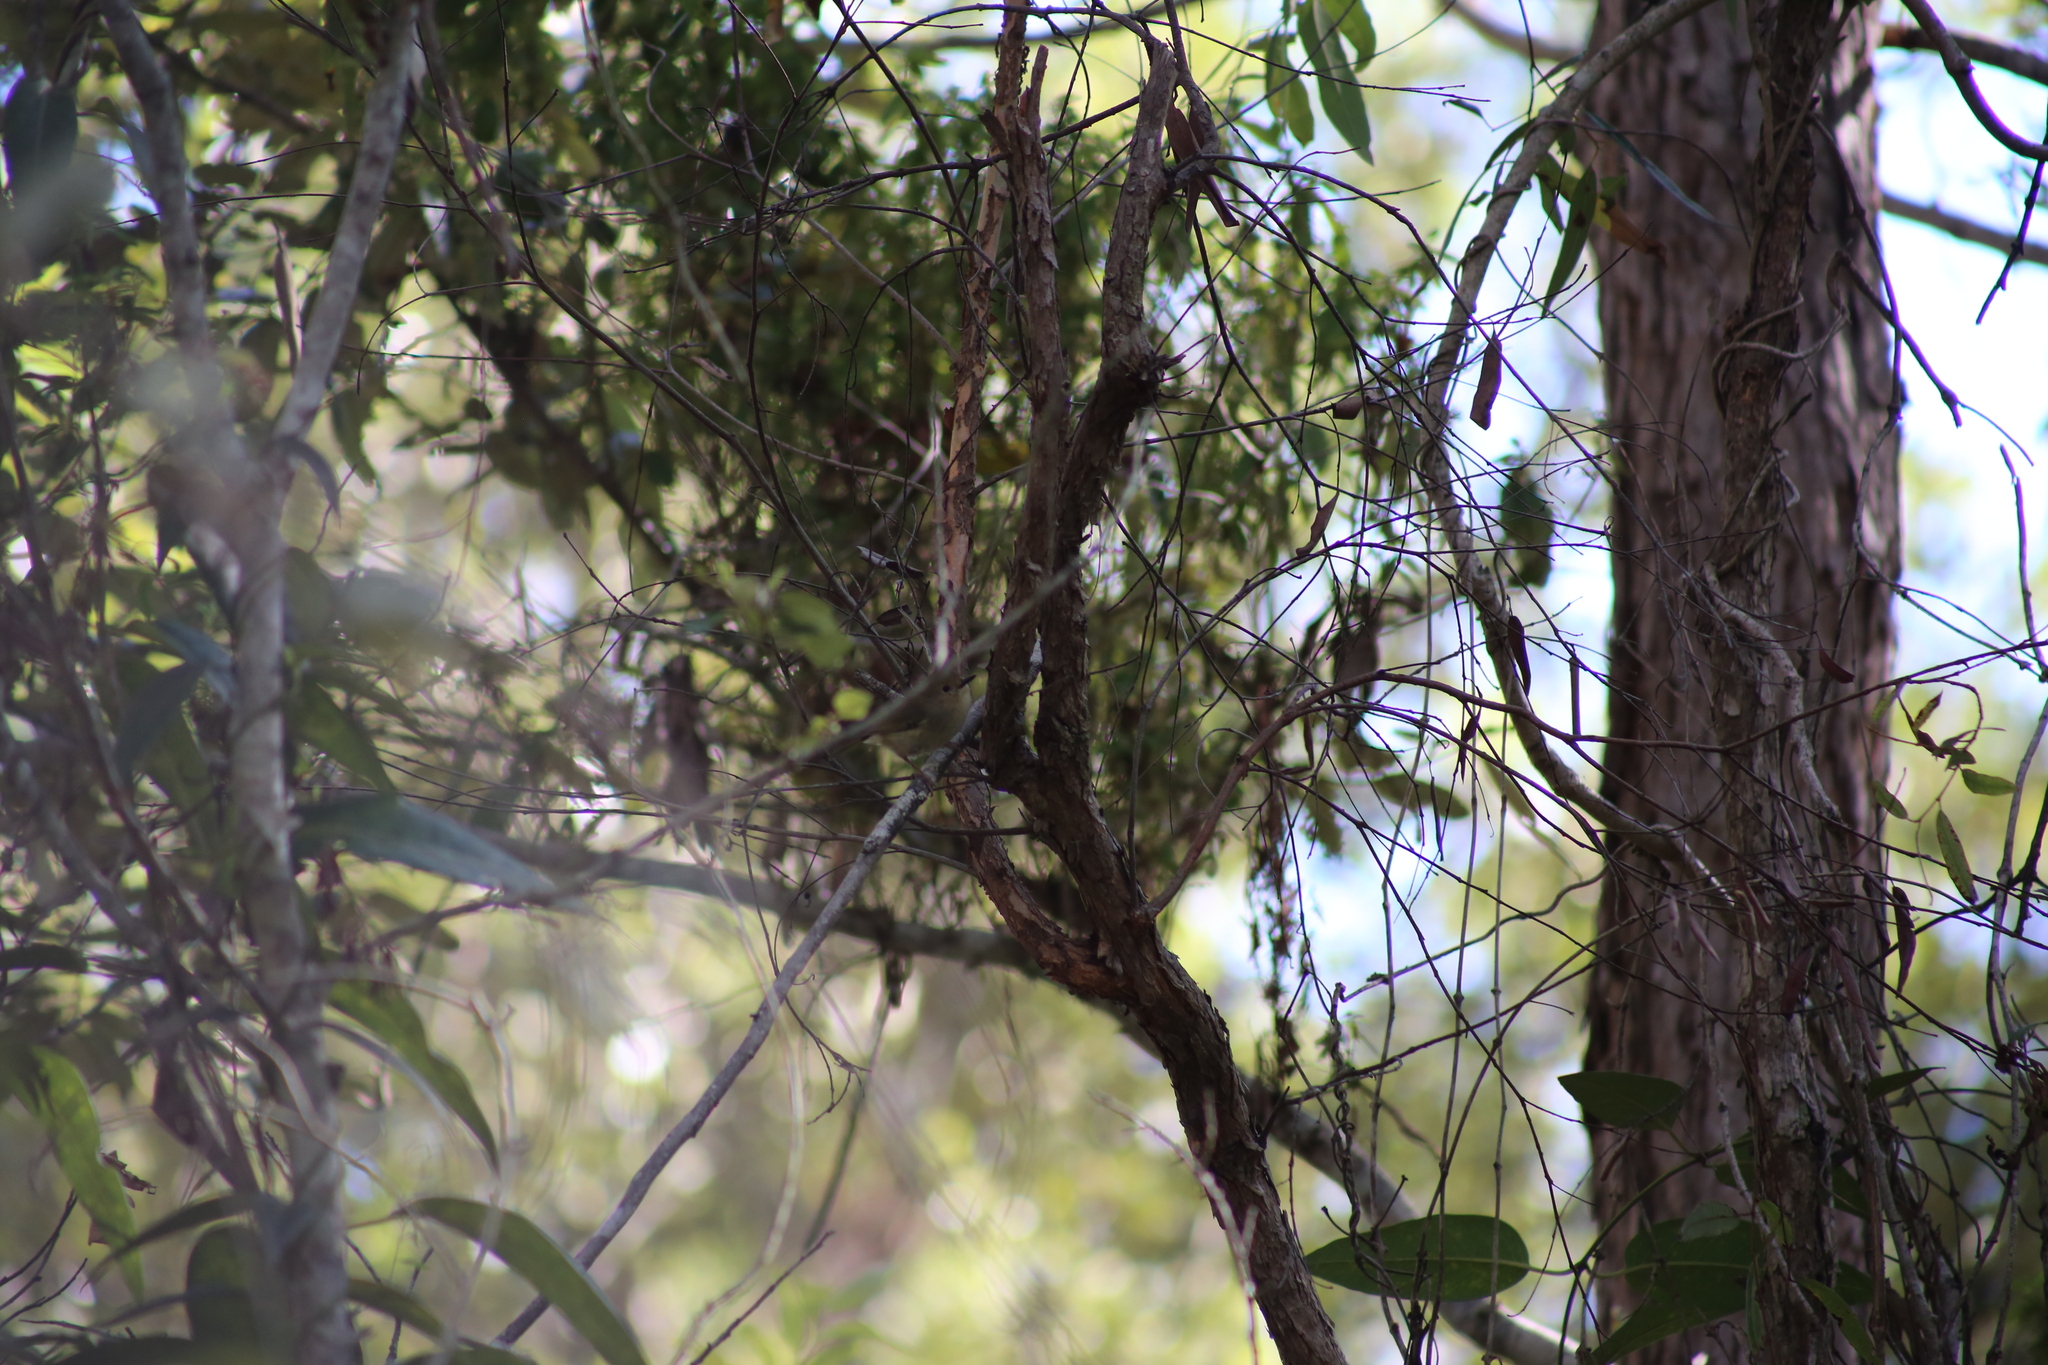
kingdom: Animalia
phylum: Chordata
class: Aves
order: Passeriformes
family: Acanthizidae
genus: Sericornis
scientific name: Sericornis magnirostra
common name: Large-billed scrubwren
